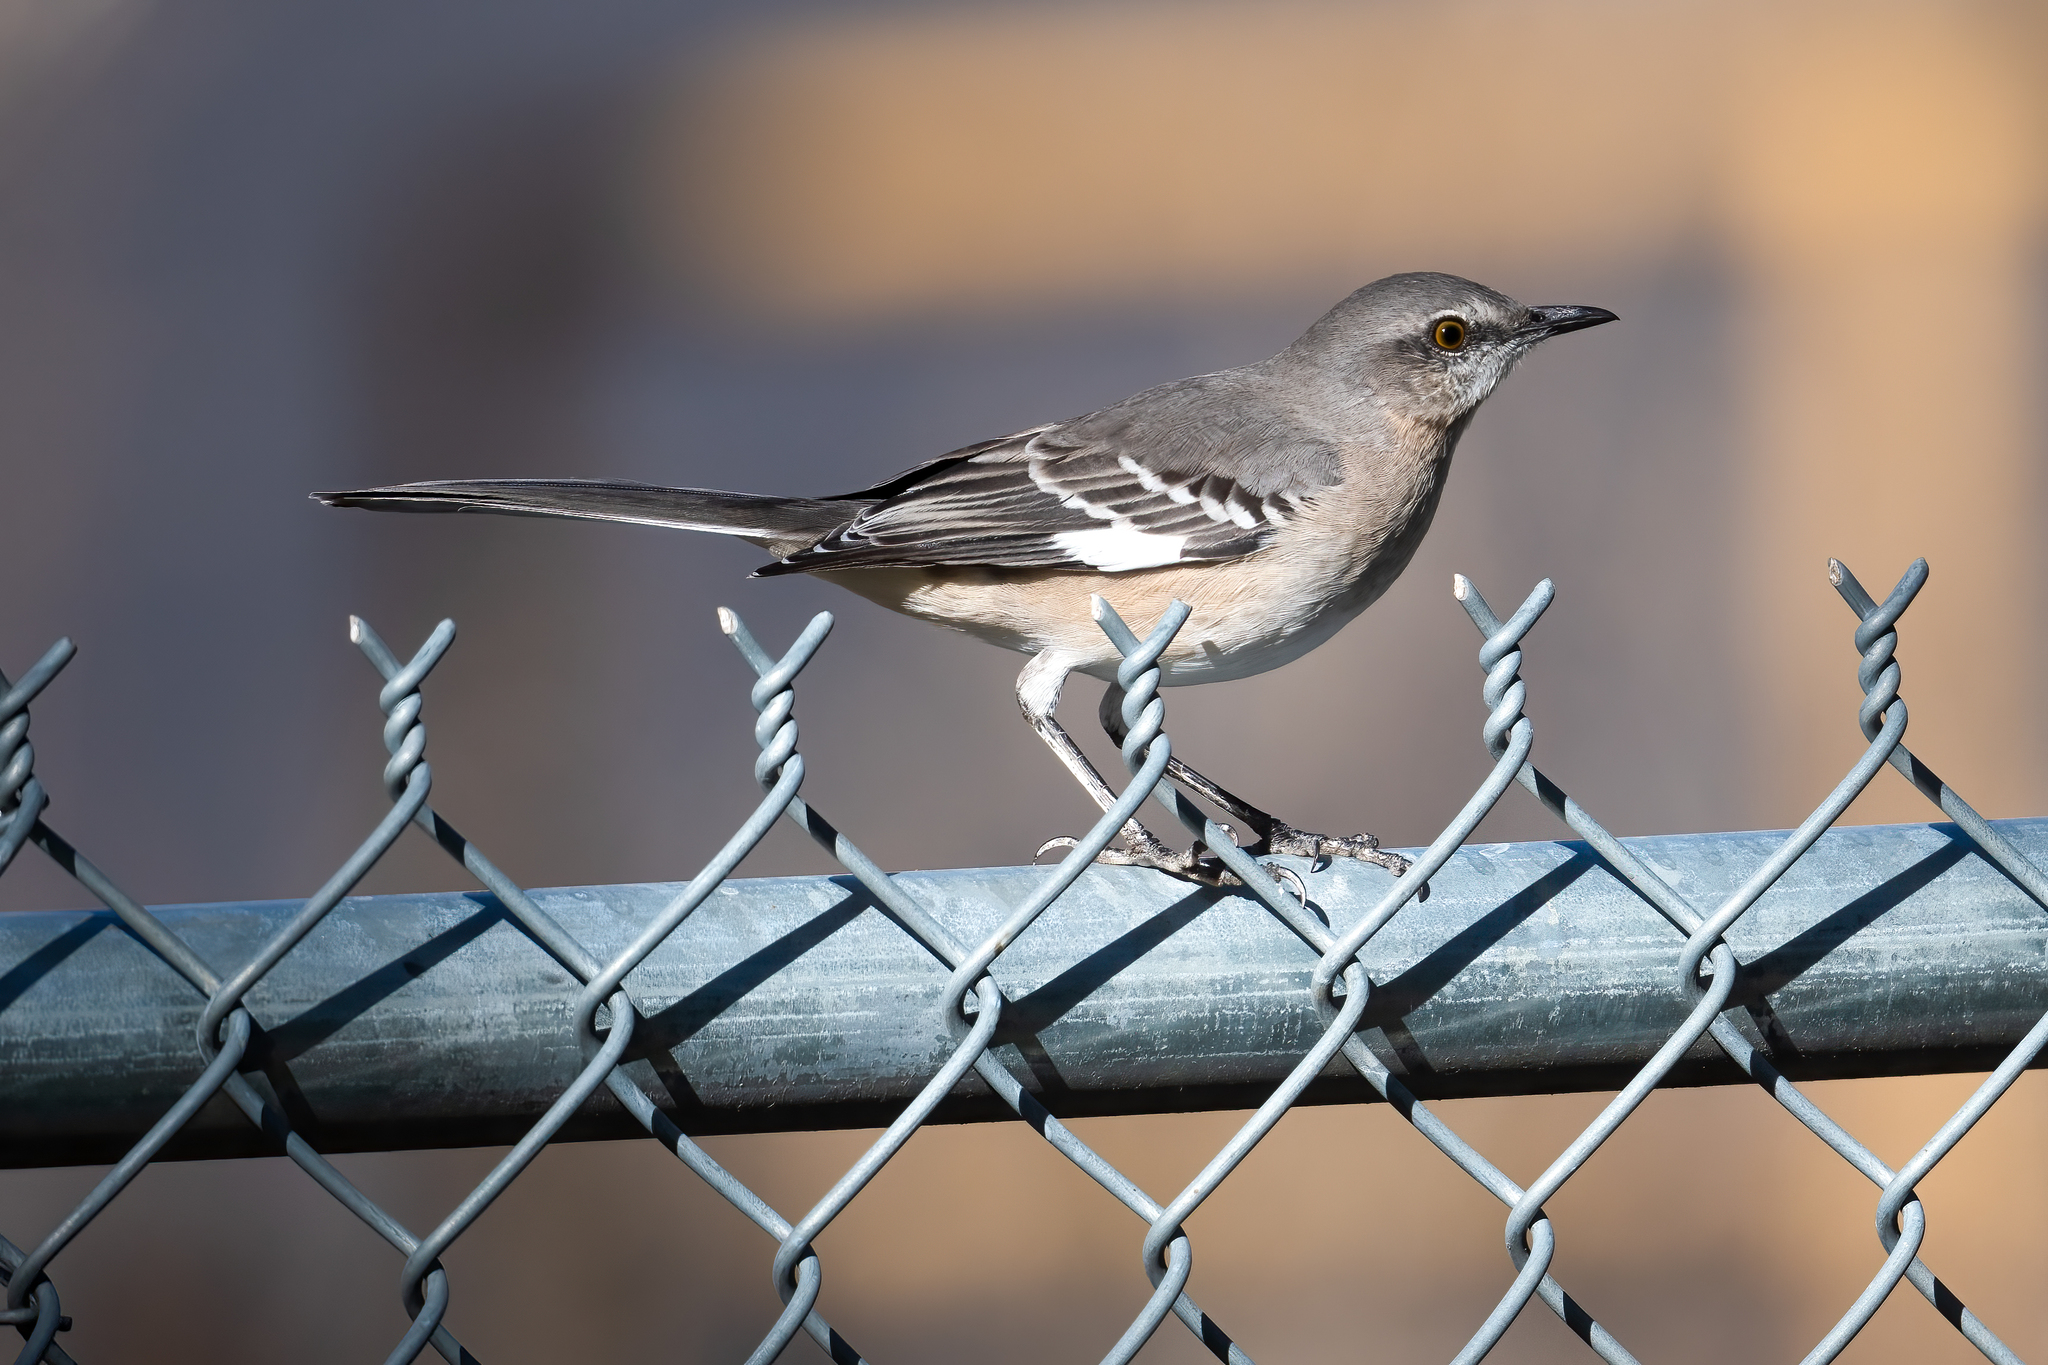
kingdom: Animalia
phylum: Chordata
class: Aves
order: Passeriformes
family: Mimidae
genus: Mimus
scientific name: Mimus polyglottos
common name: Northern mockingbird
